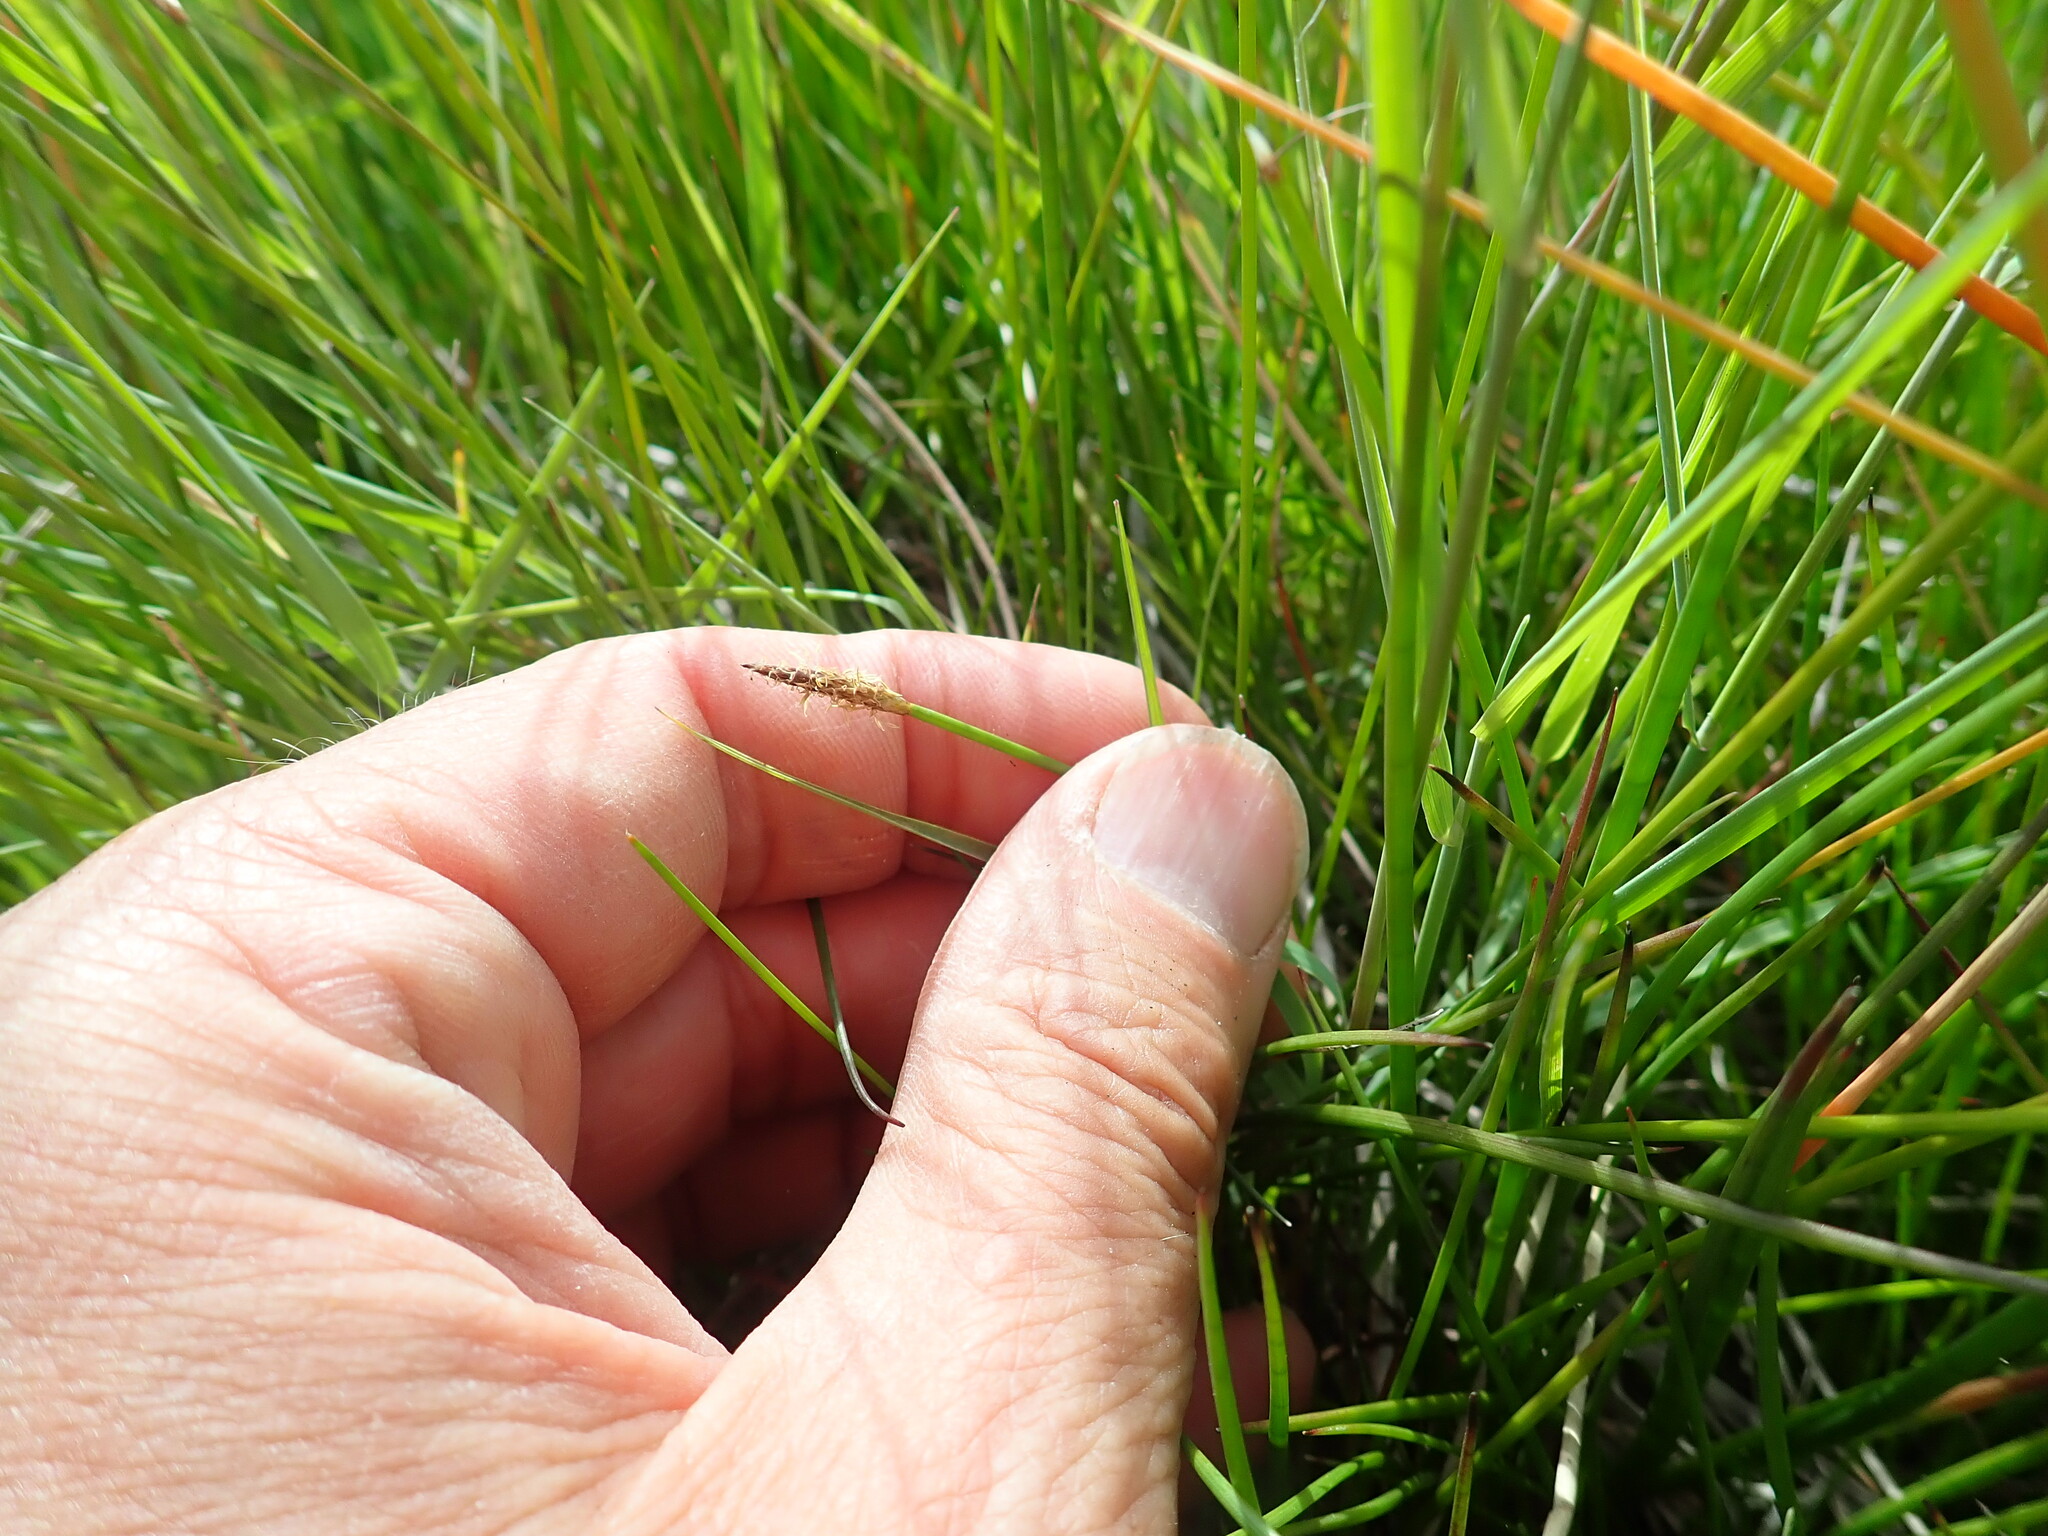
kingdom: Plantae
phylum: Tracheophyta
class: Liliopsida
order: Poales
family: Cyperaceae
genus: Eleocharis
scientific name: Eleocharis acuta
